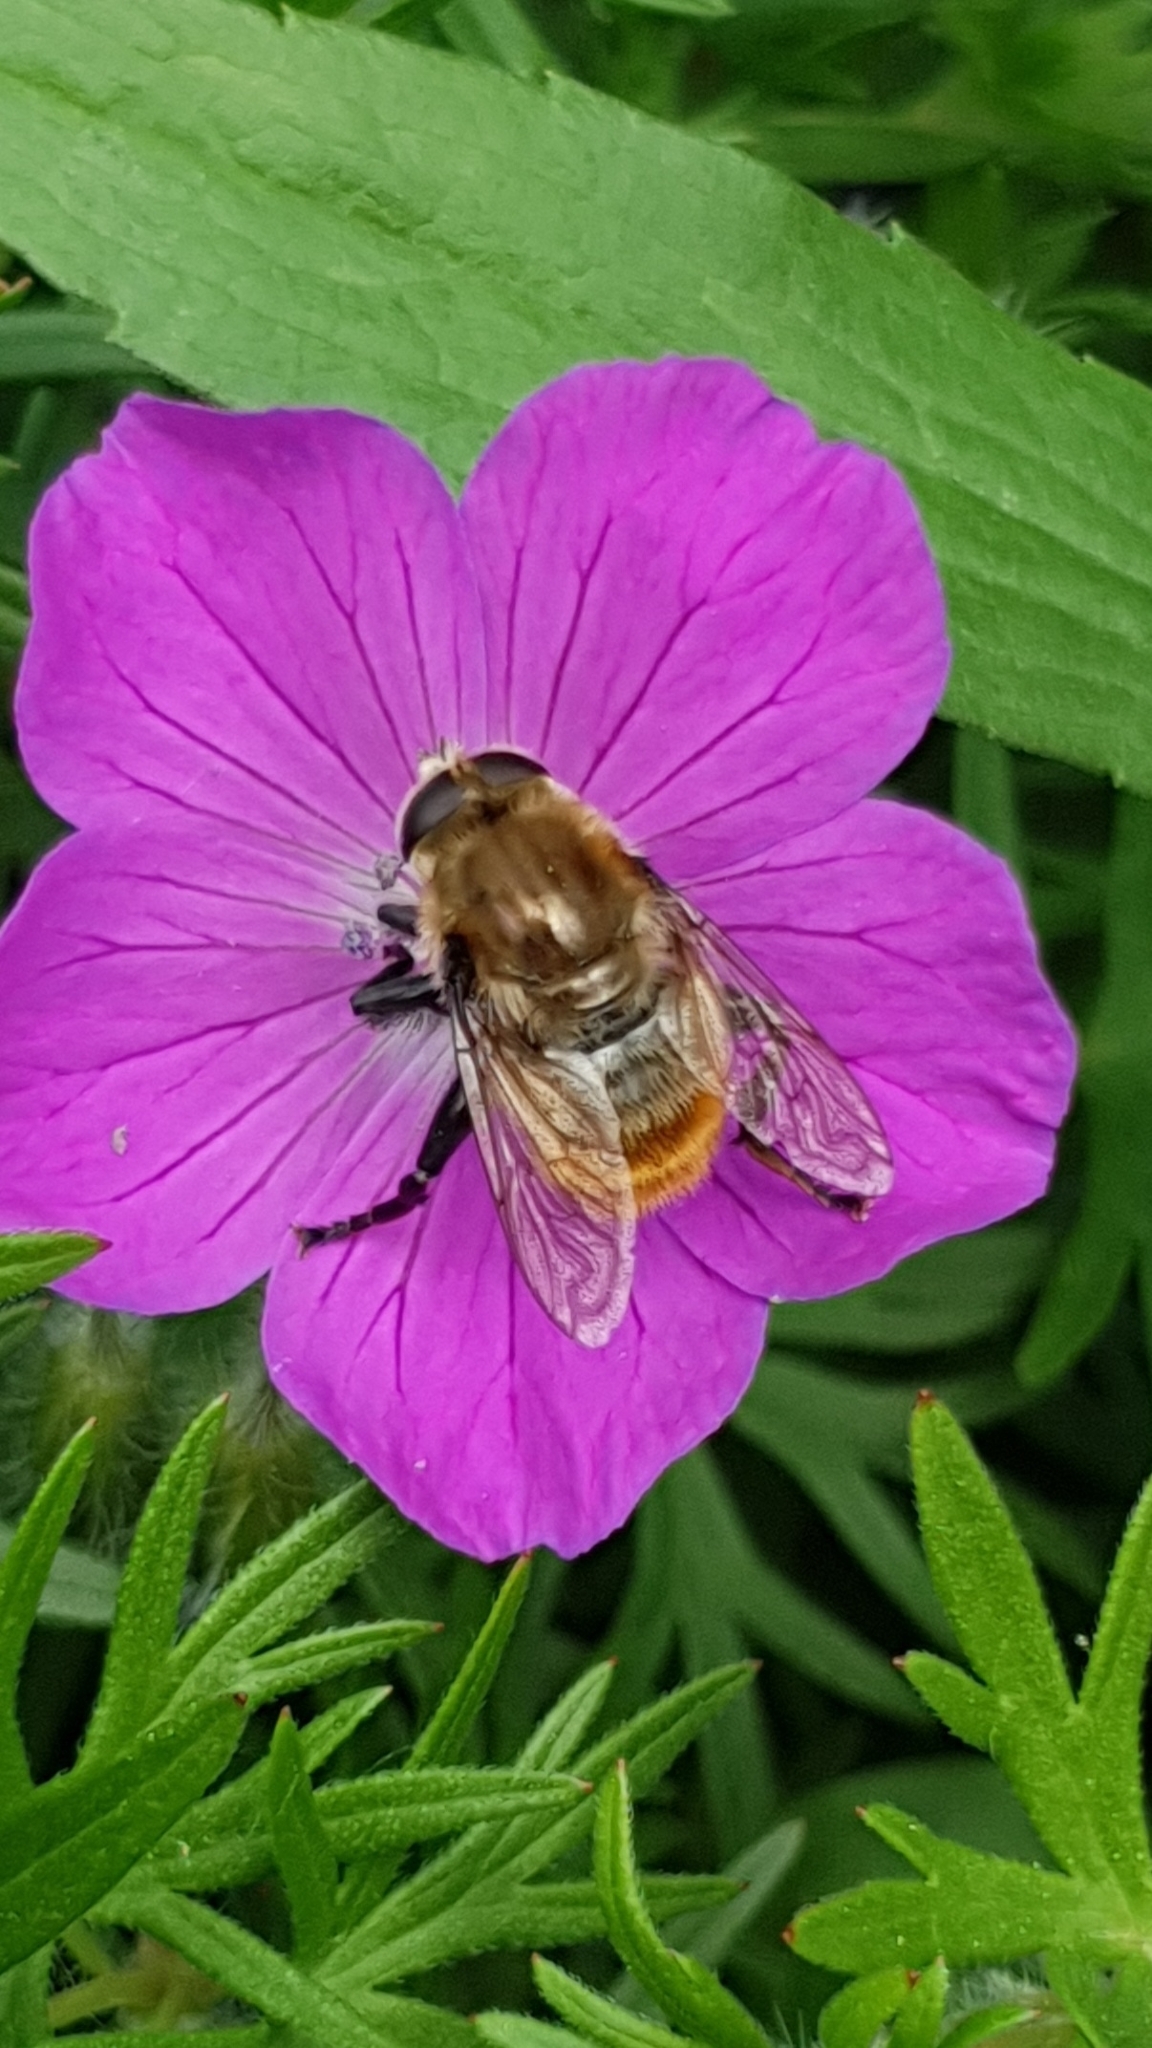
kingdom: Animalia
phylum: Arthropoda
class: Insecta
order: Diptera
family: Syrphidae
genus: Merodon
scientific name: Merodon equestris
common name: Greater bulb-fly
